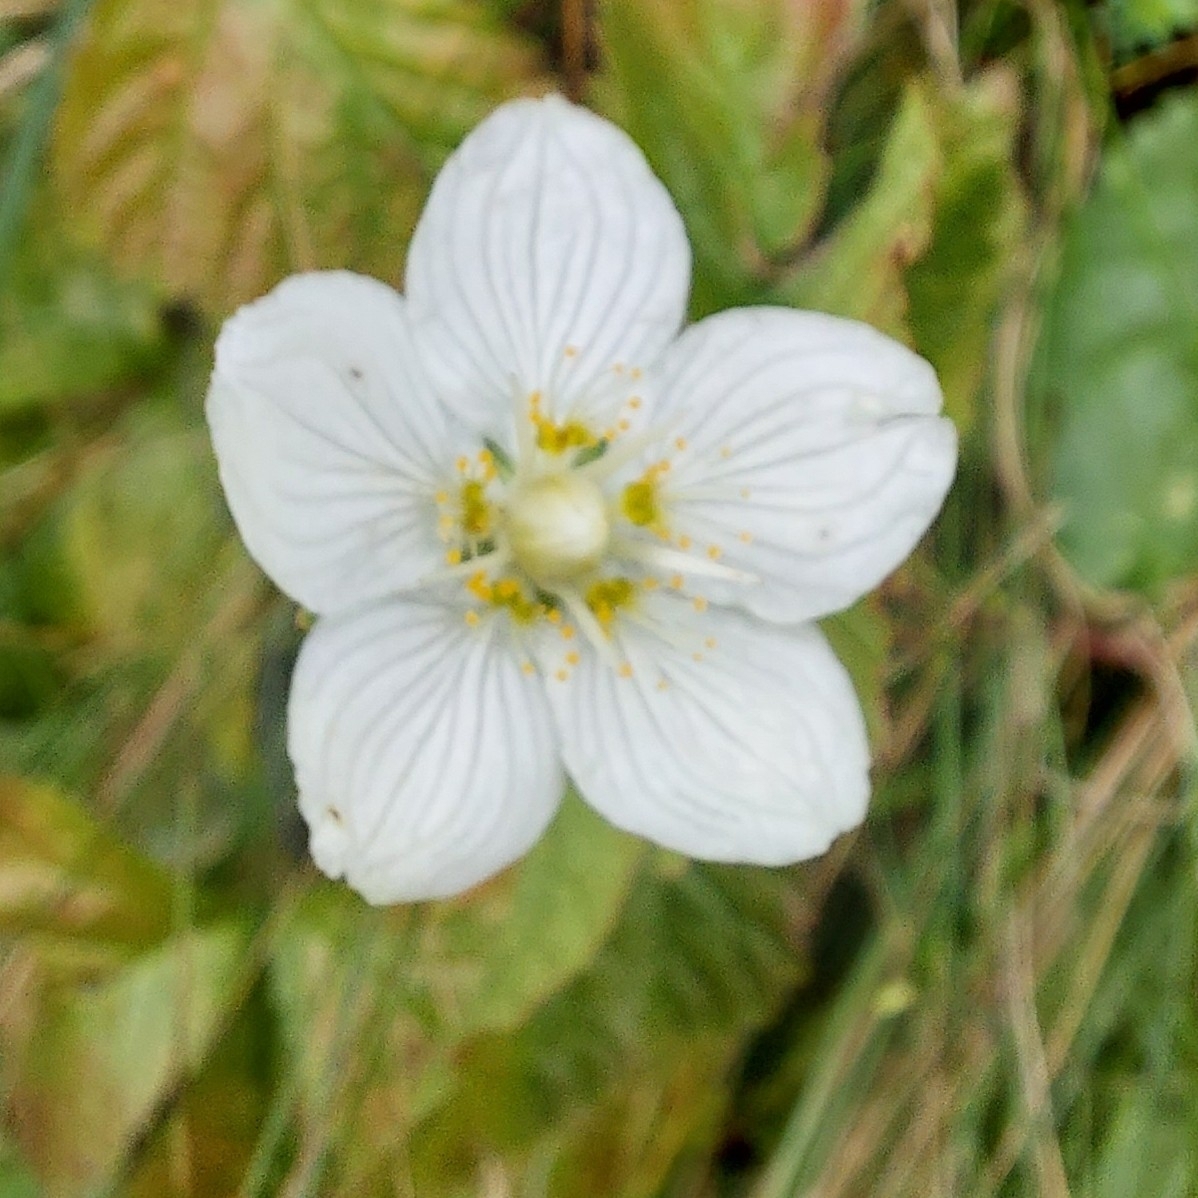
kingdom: Plantae
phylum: Tracheophyta
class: Magnoliopsida
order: Celastrales
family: Parnassiaceae
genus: Parnassia
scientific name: Parnassia palustris
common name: Grass-of-parnassus
